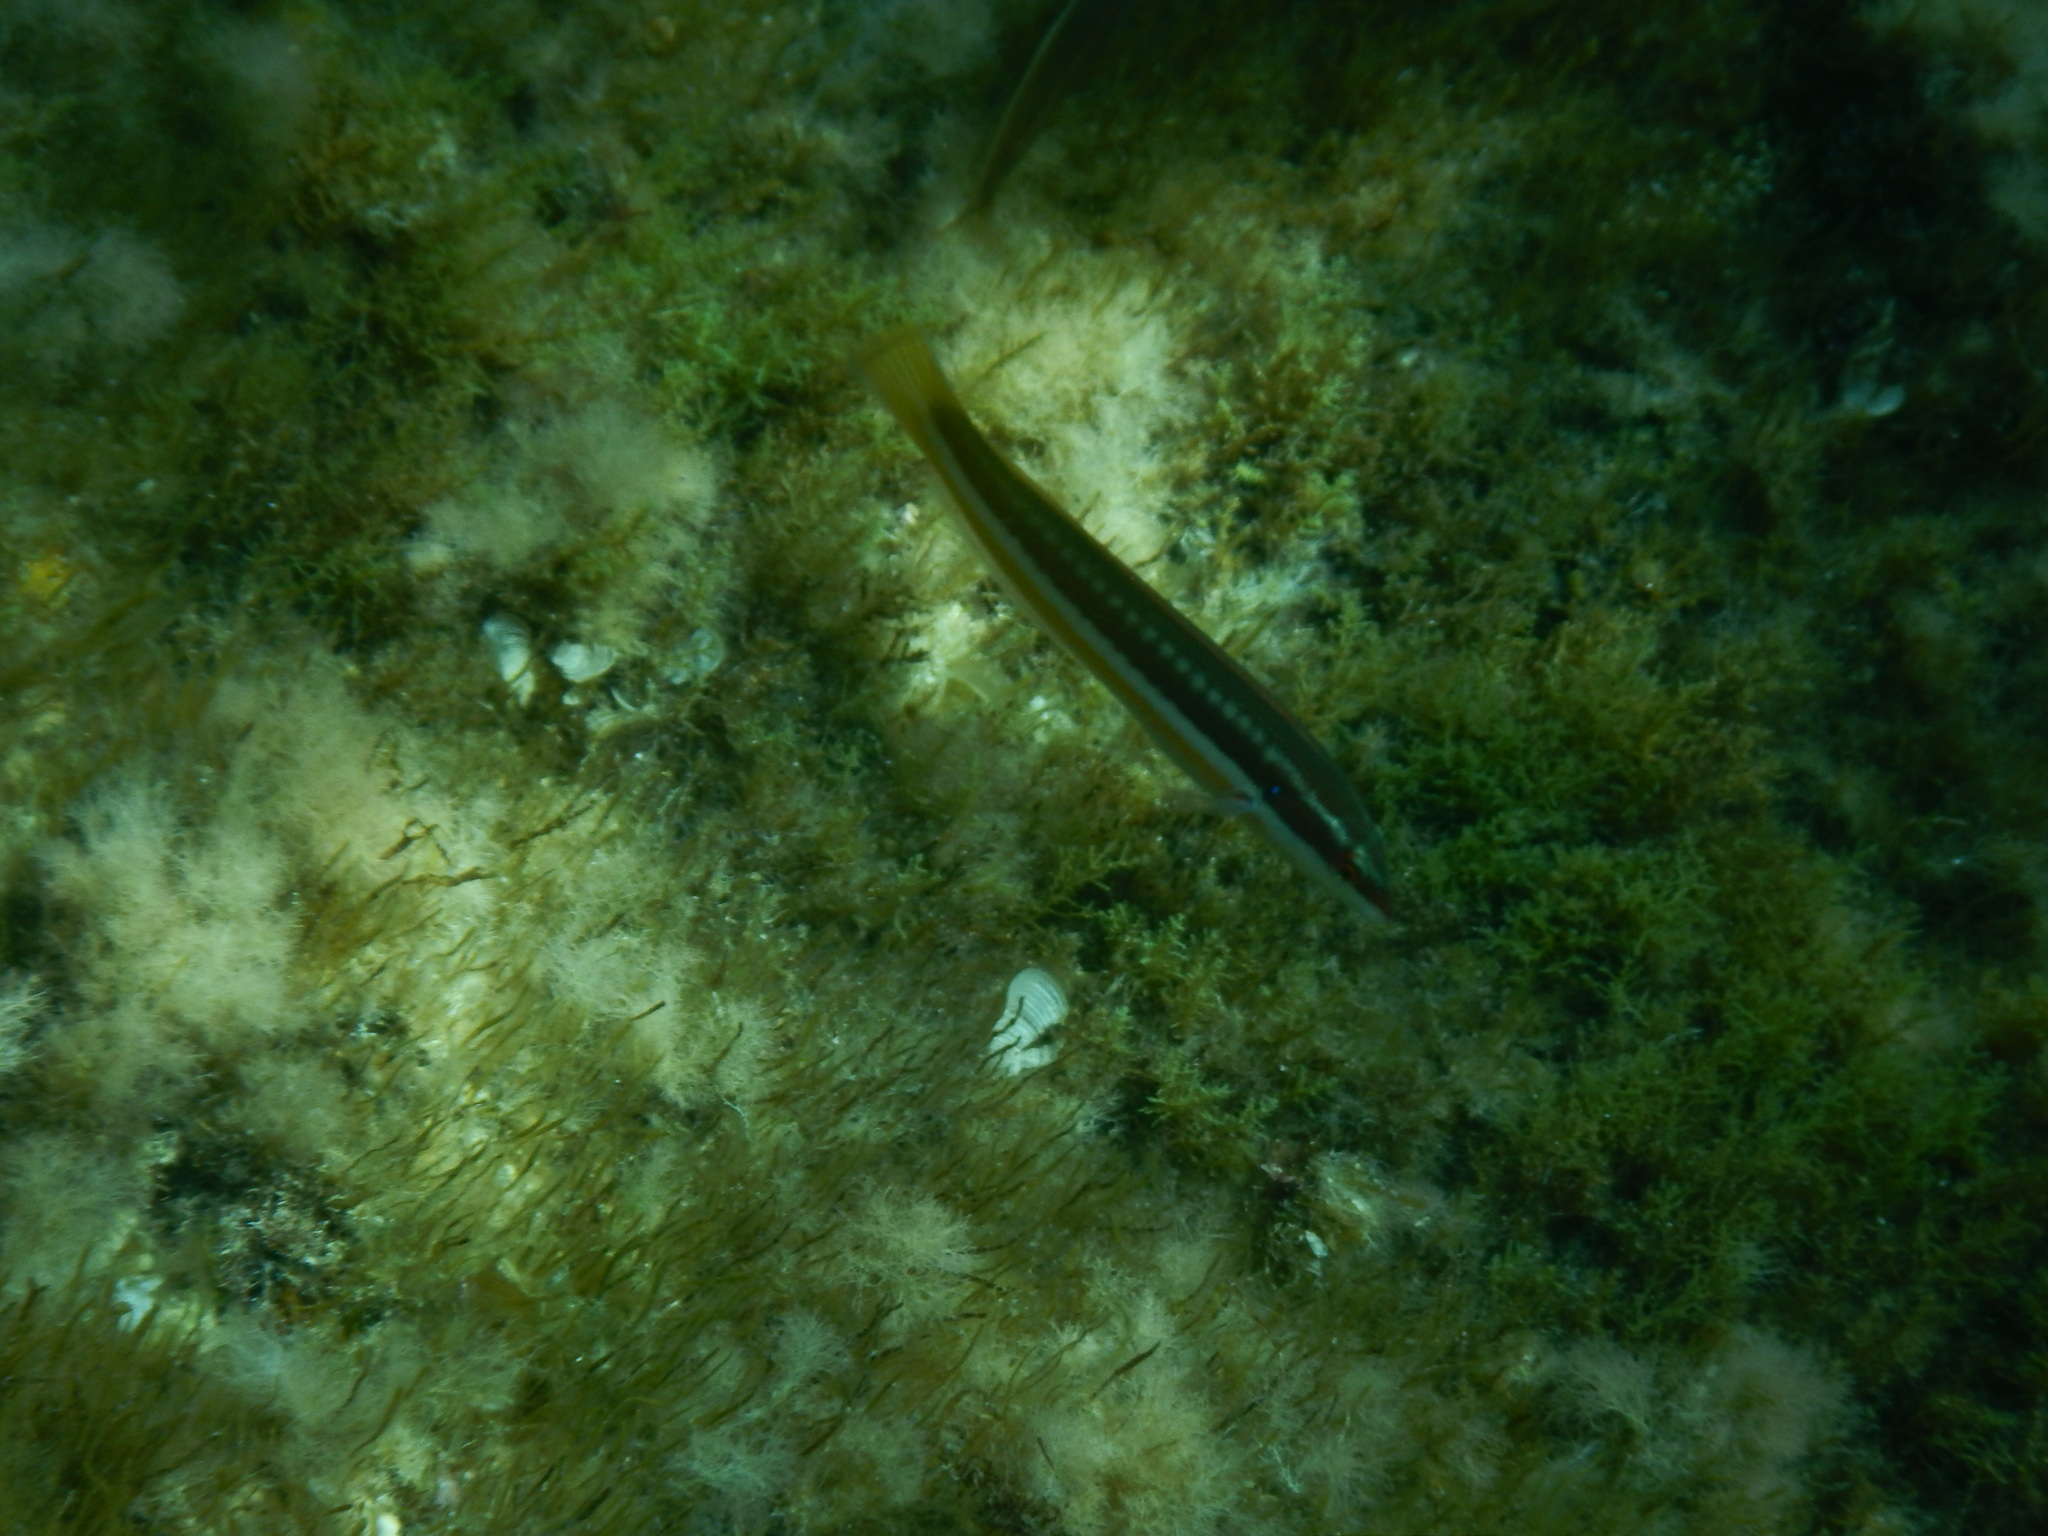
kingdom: Animalia
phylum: Chordata
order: Perciformes
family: Labridae
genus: Coris
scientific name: Coris julis
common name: Rainbow wrasse
